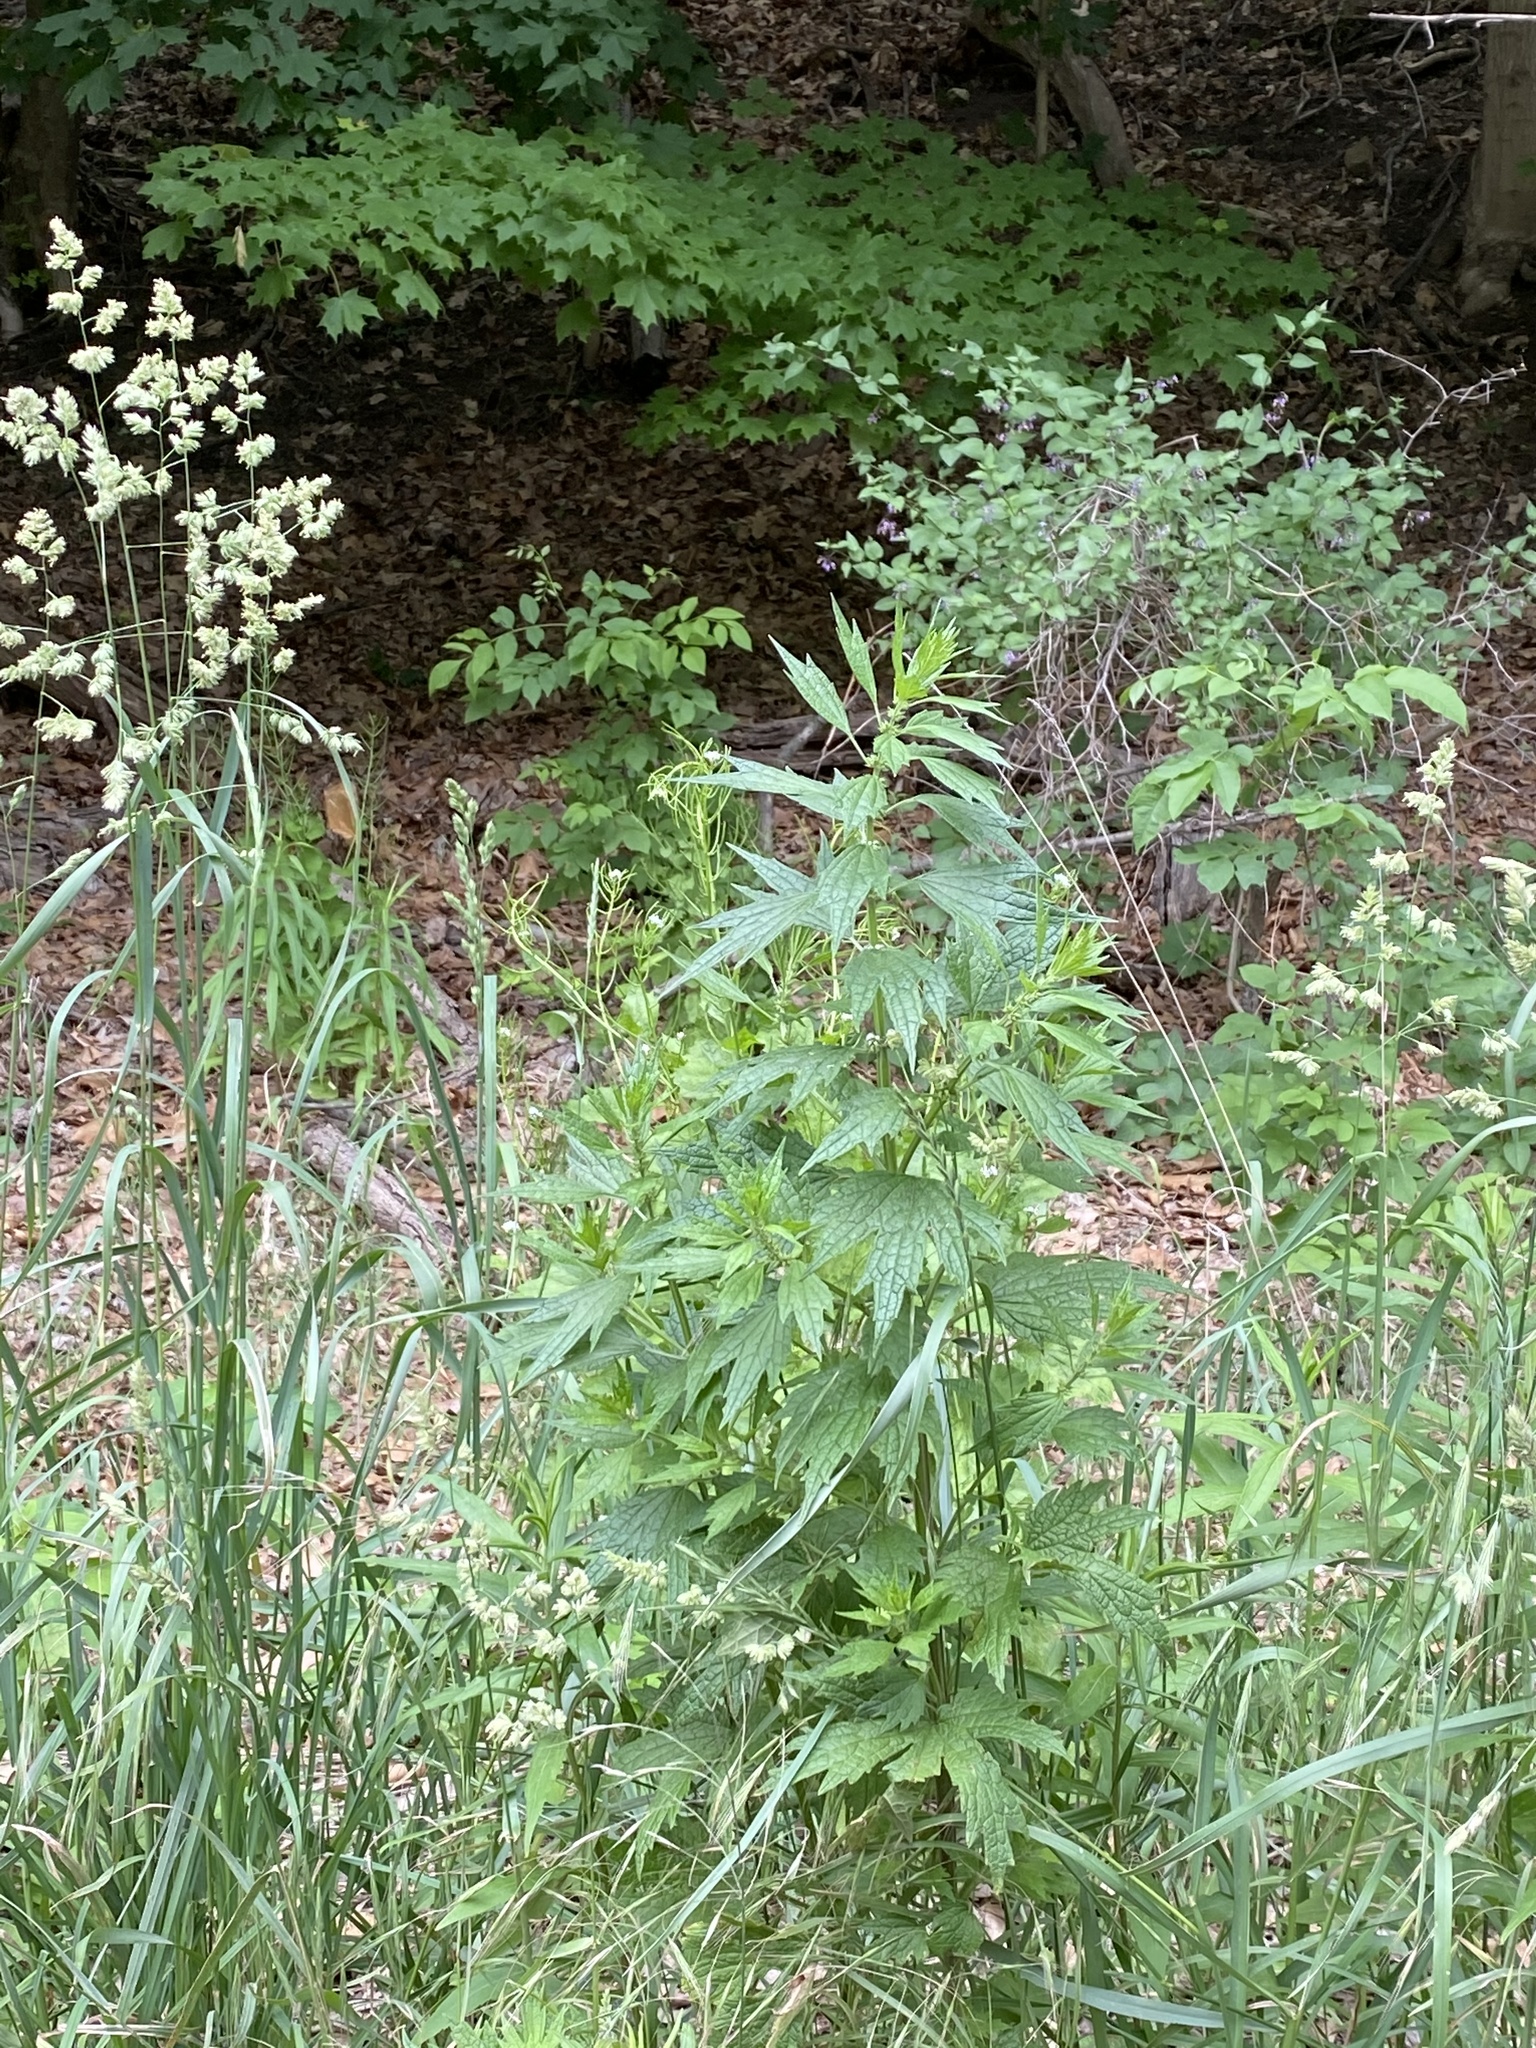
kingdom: Plantae
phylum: Tracheophyta
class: Magnoliopsida
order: Lamiales
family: Lamiaceae
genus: Leonurus
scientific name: Leonurus cardiaca
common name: Motherwort
